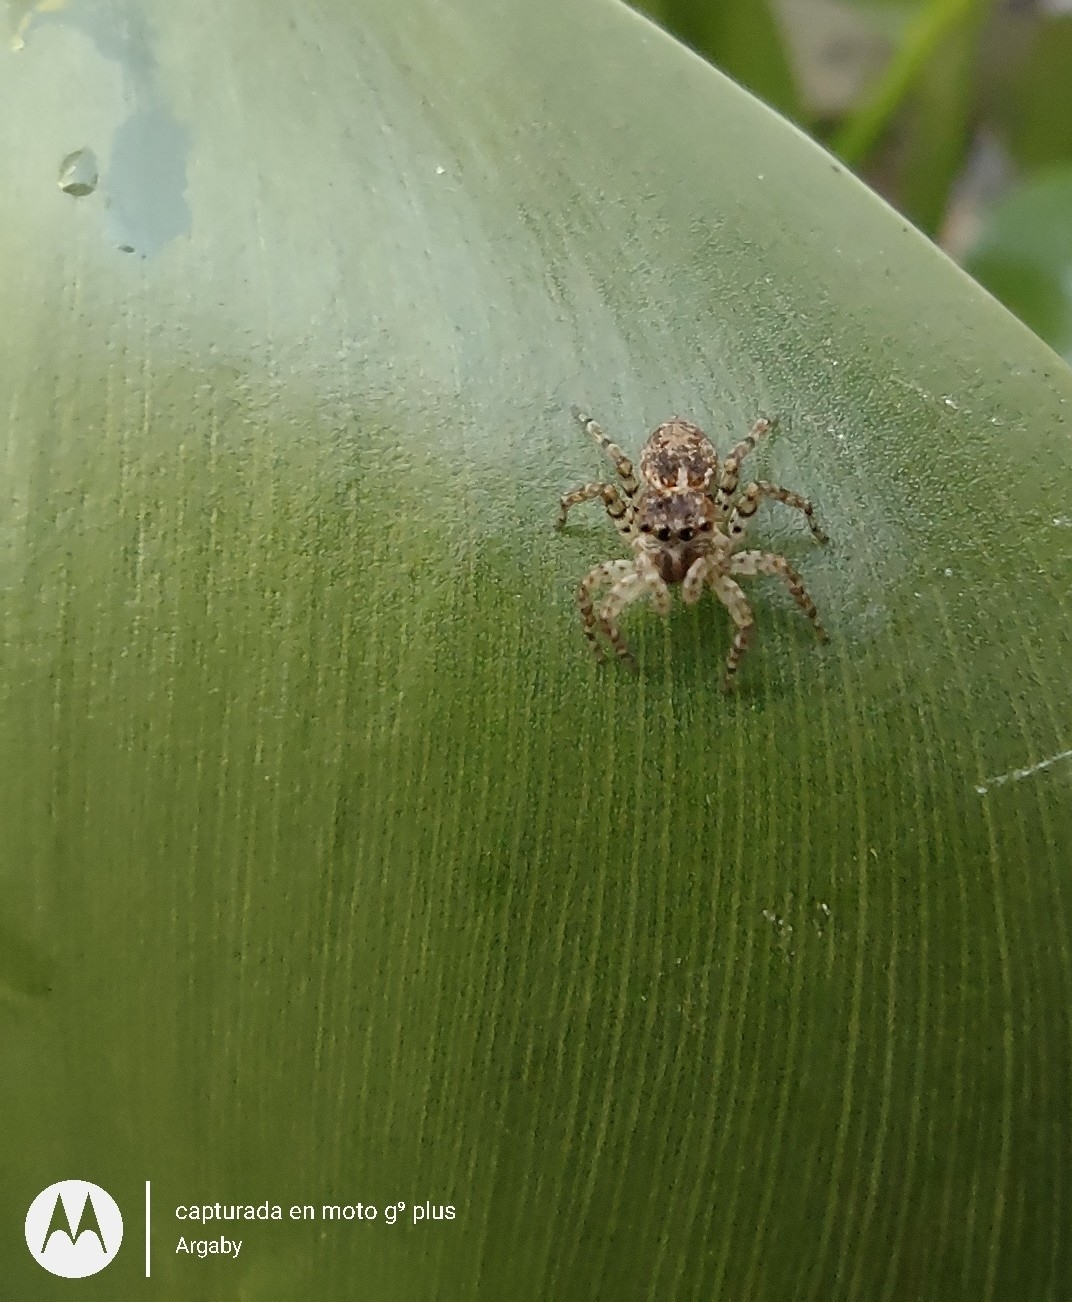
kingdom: Animalia
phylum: Arthropoda
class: Arachnida
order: Araneae
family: Salticidae
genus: Saitis
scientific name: Saitis variegatus
